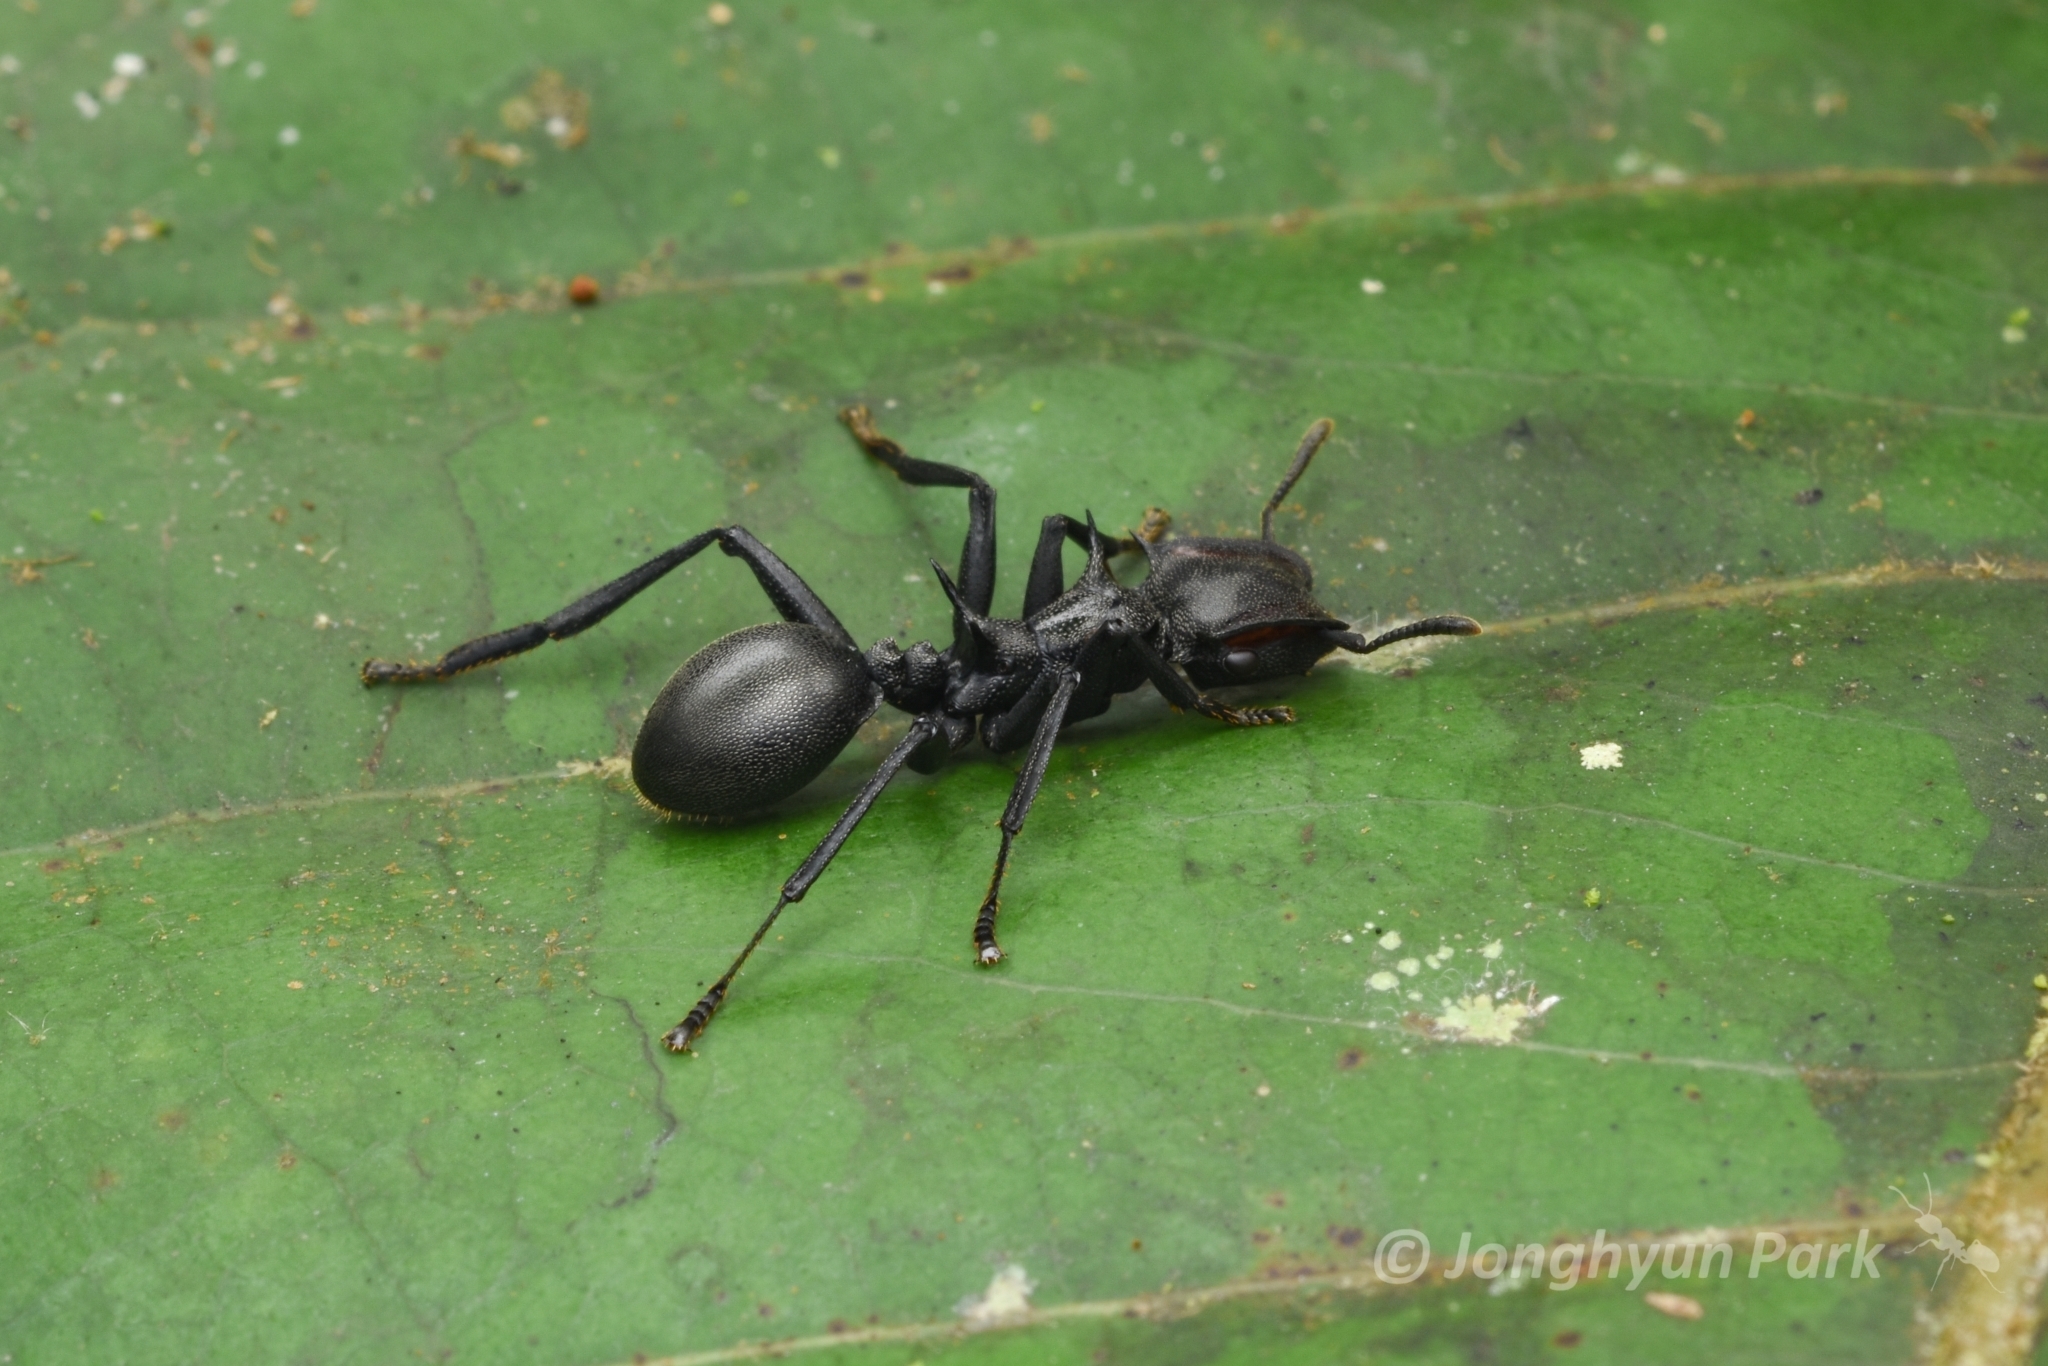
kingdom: Animalia
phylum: Arthropoda
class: Insecta
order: Hymenoptera
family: Formicidae
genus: Cephalotes
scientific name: Cephalotes atratus
